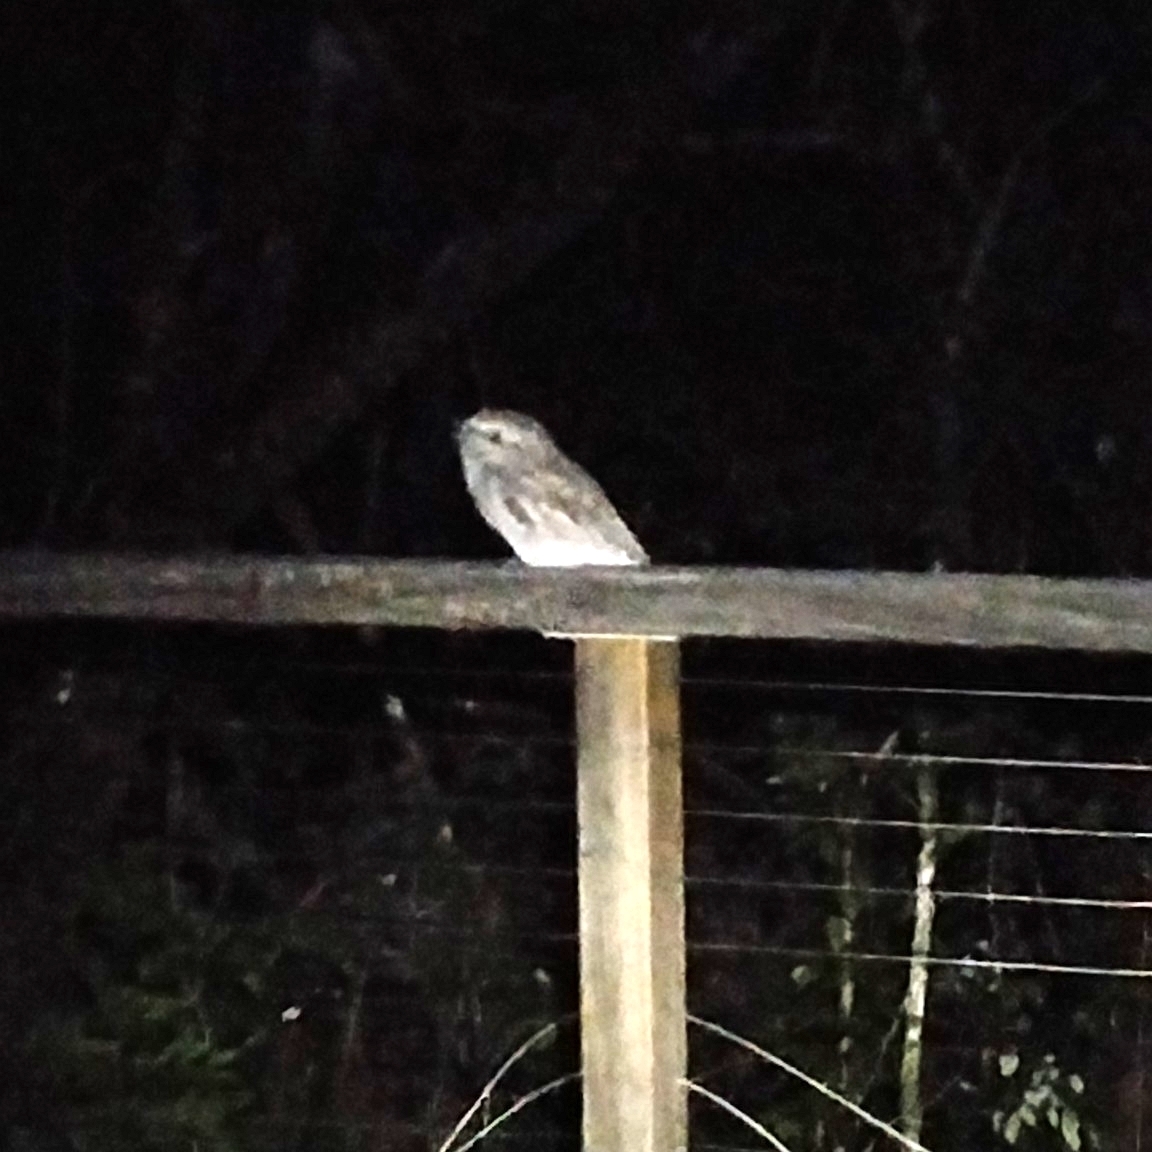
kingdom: Animalia
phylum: Chordata
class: Aves
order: Caprimulgiformes
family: Podargidae
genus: Podargus
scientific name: Podargus strigoides
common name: Tawny frogmouth
